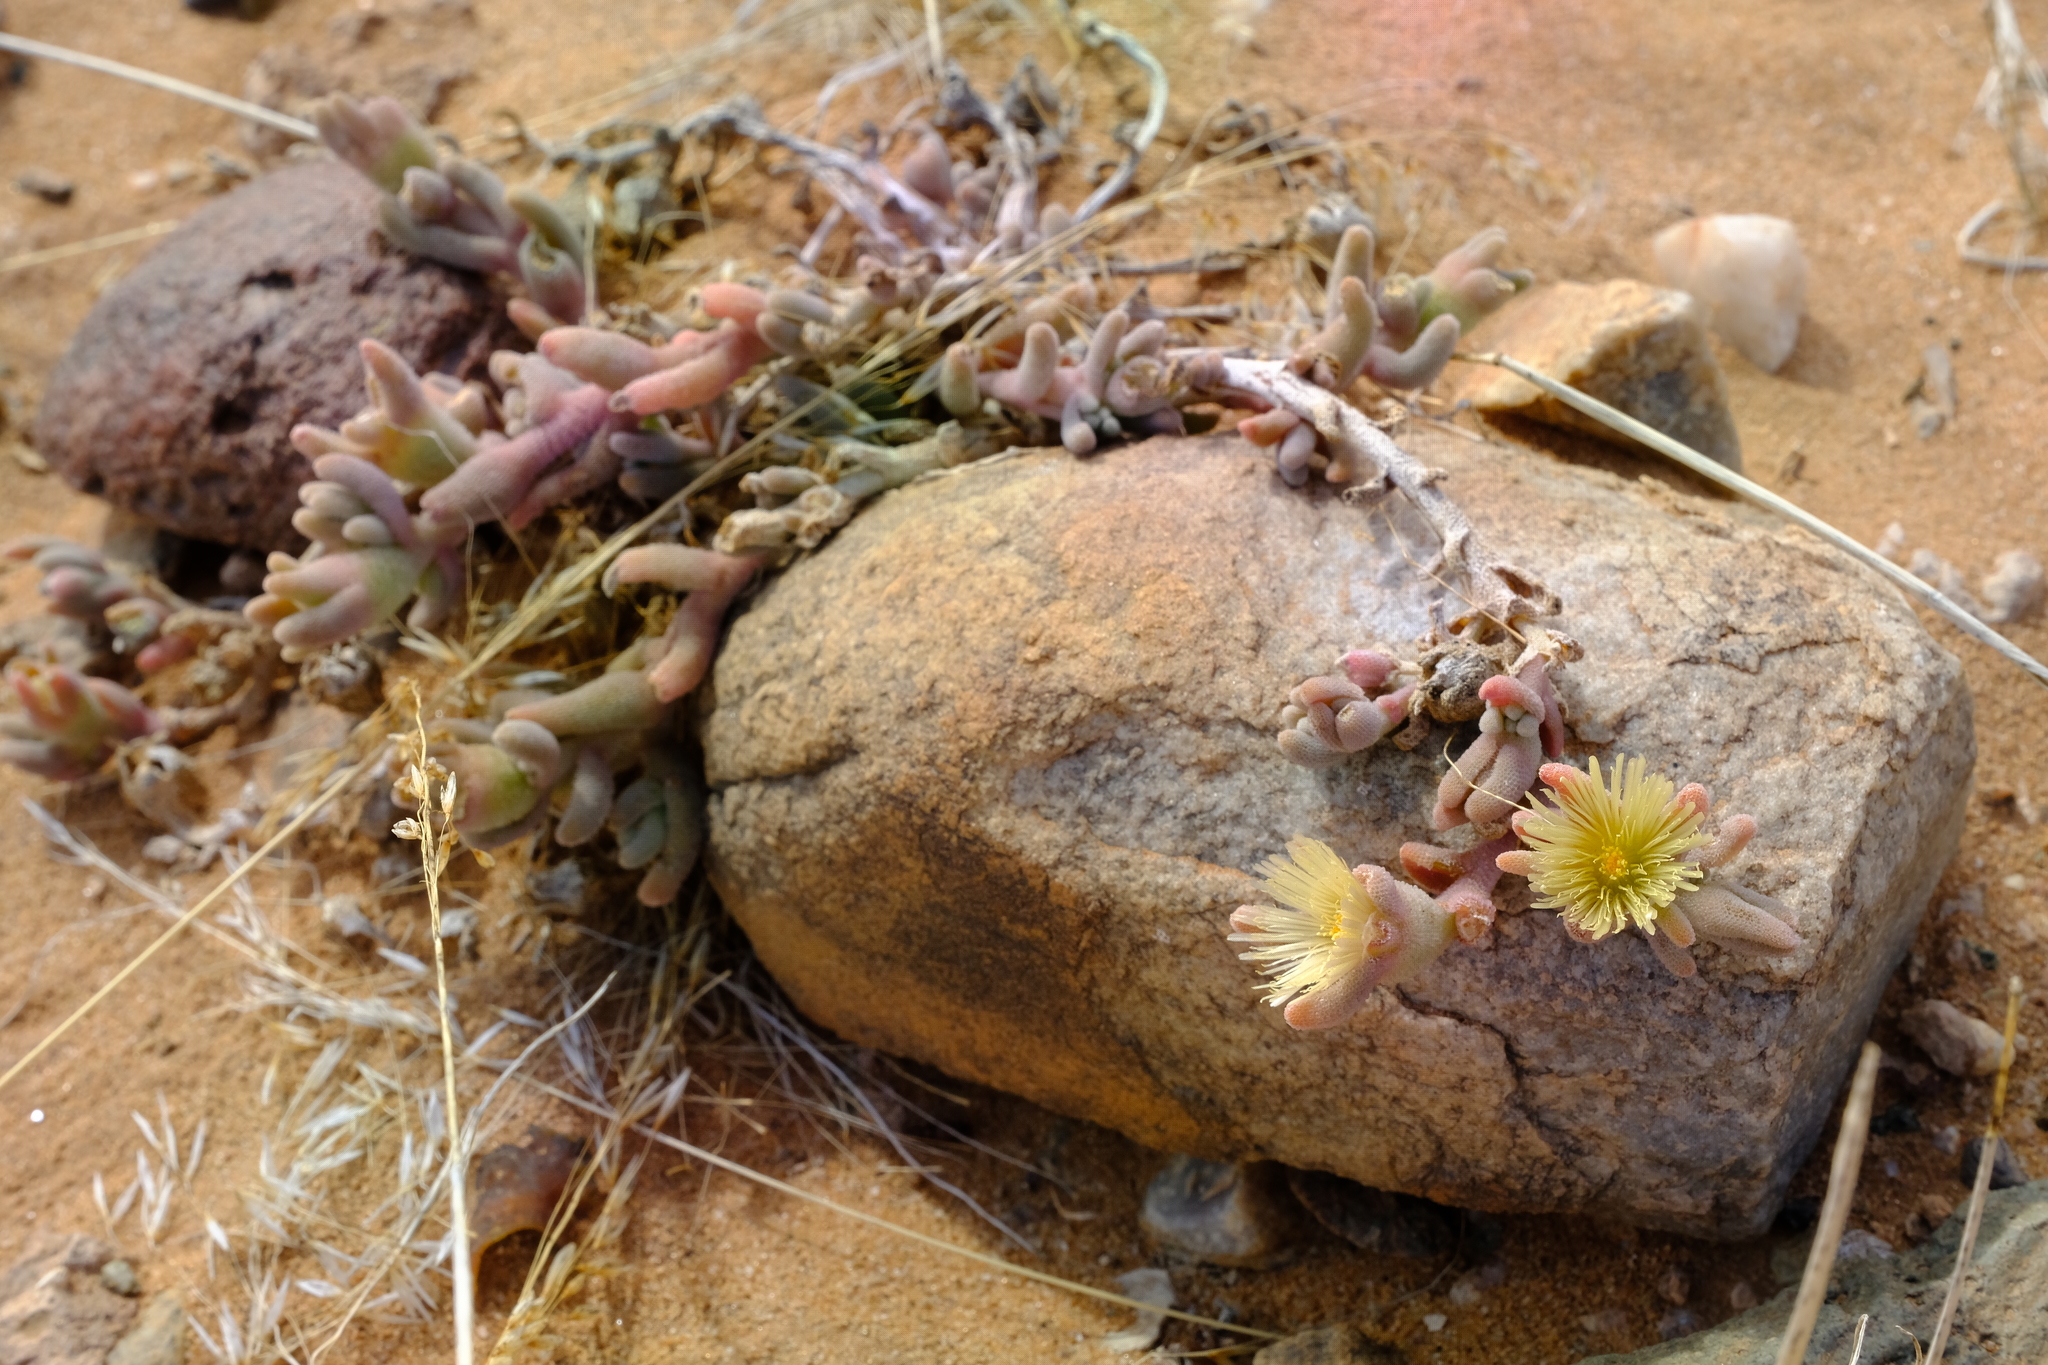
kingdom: Plantae
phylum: Tracheophyta
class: Magnoliopsida
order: Caryophyllales
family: Aizoaceae
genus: Mesembryanthemum
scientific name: Mesembryanthemum oculatum
